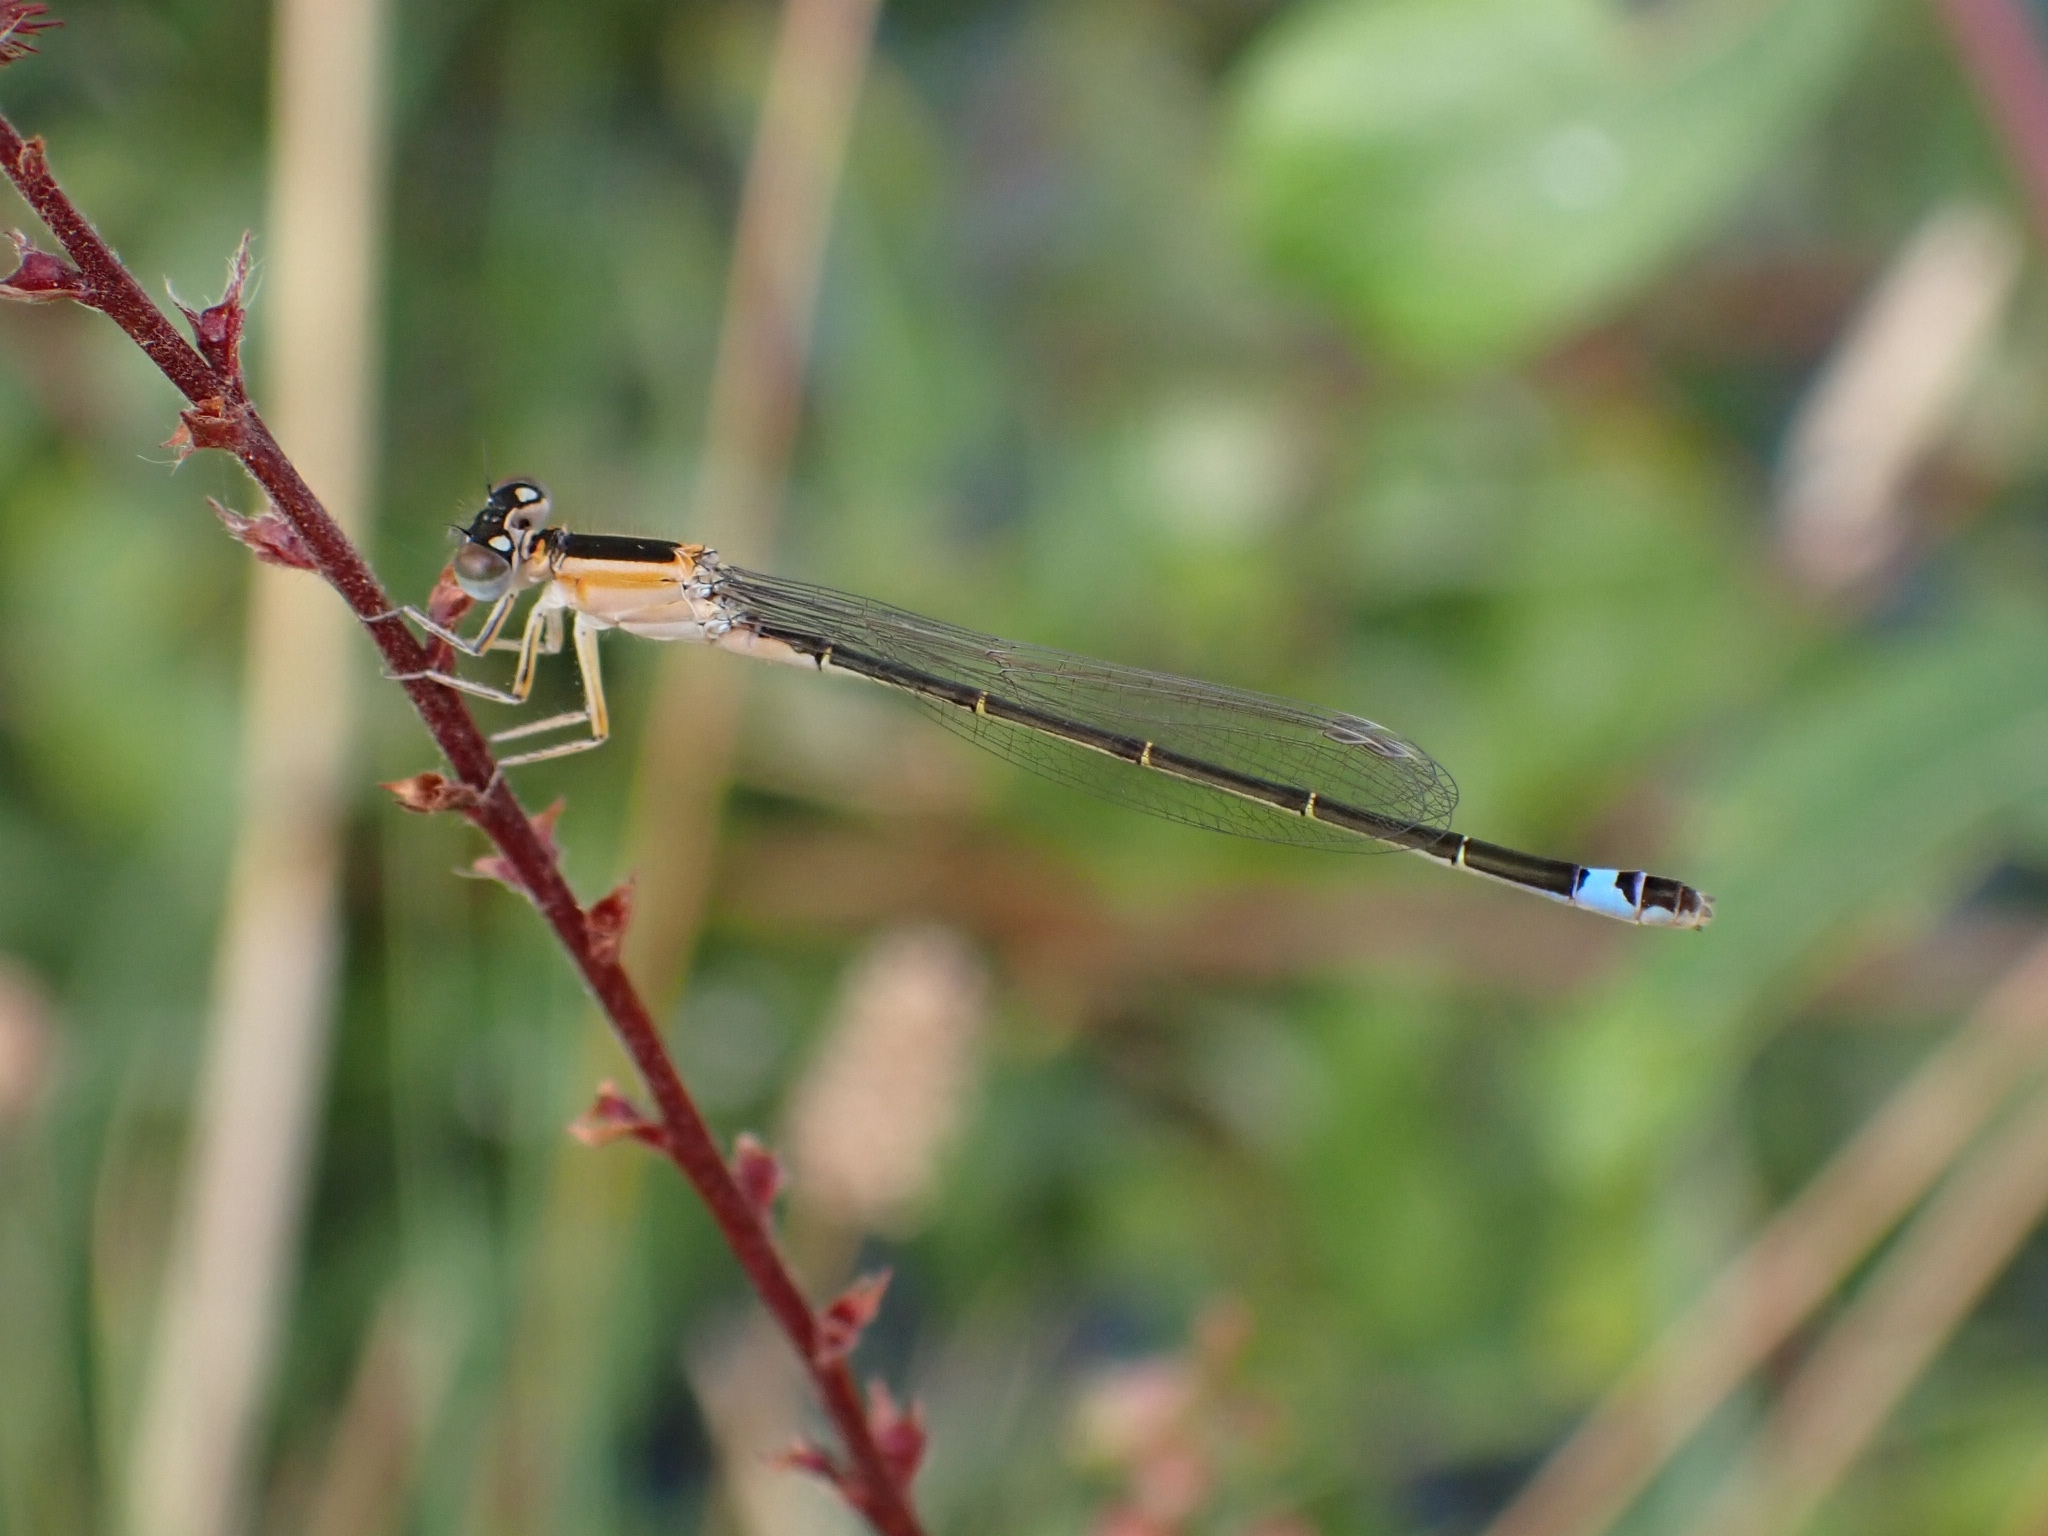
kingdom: Animalia
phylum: Arthropoda
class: Insecta
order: Odonata
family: Coenagrionidae
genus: Ischnura
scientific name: Ischnura elegans
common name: Blue-tailed damselfly
